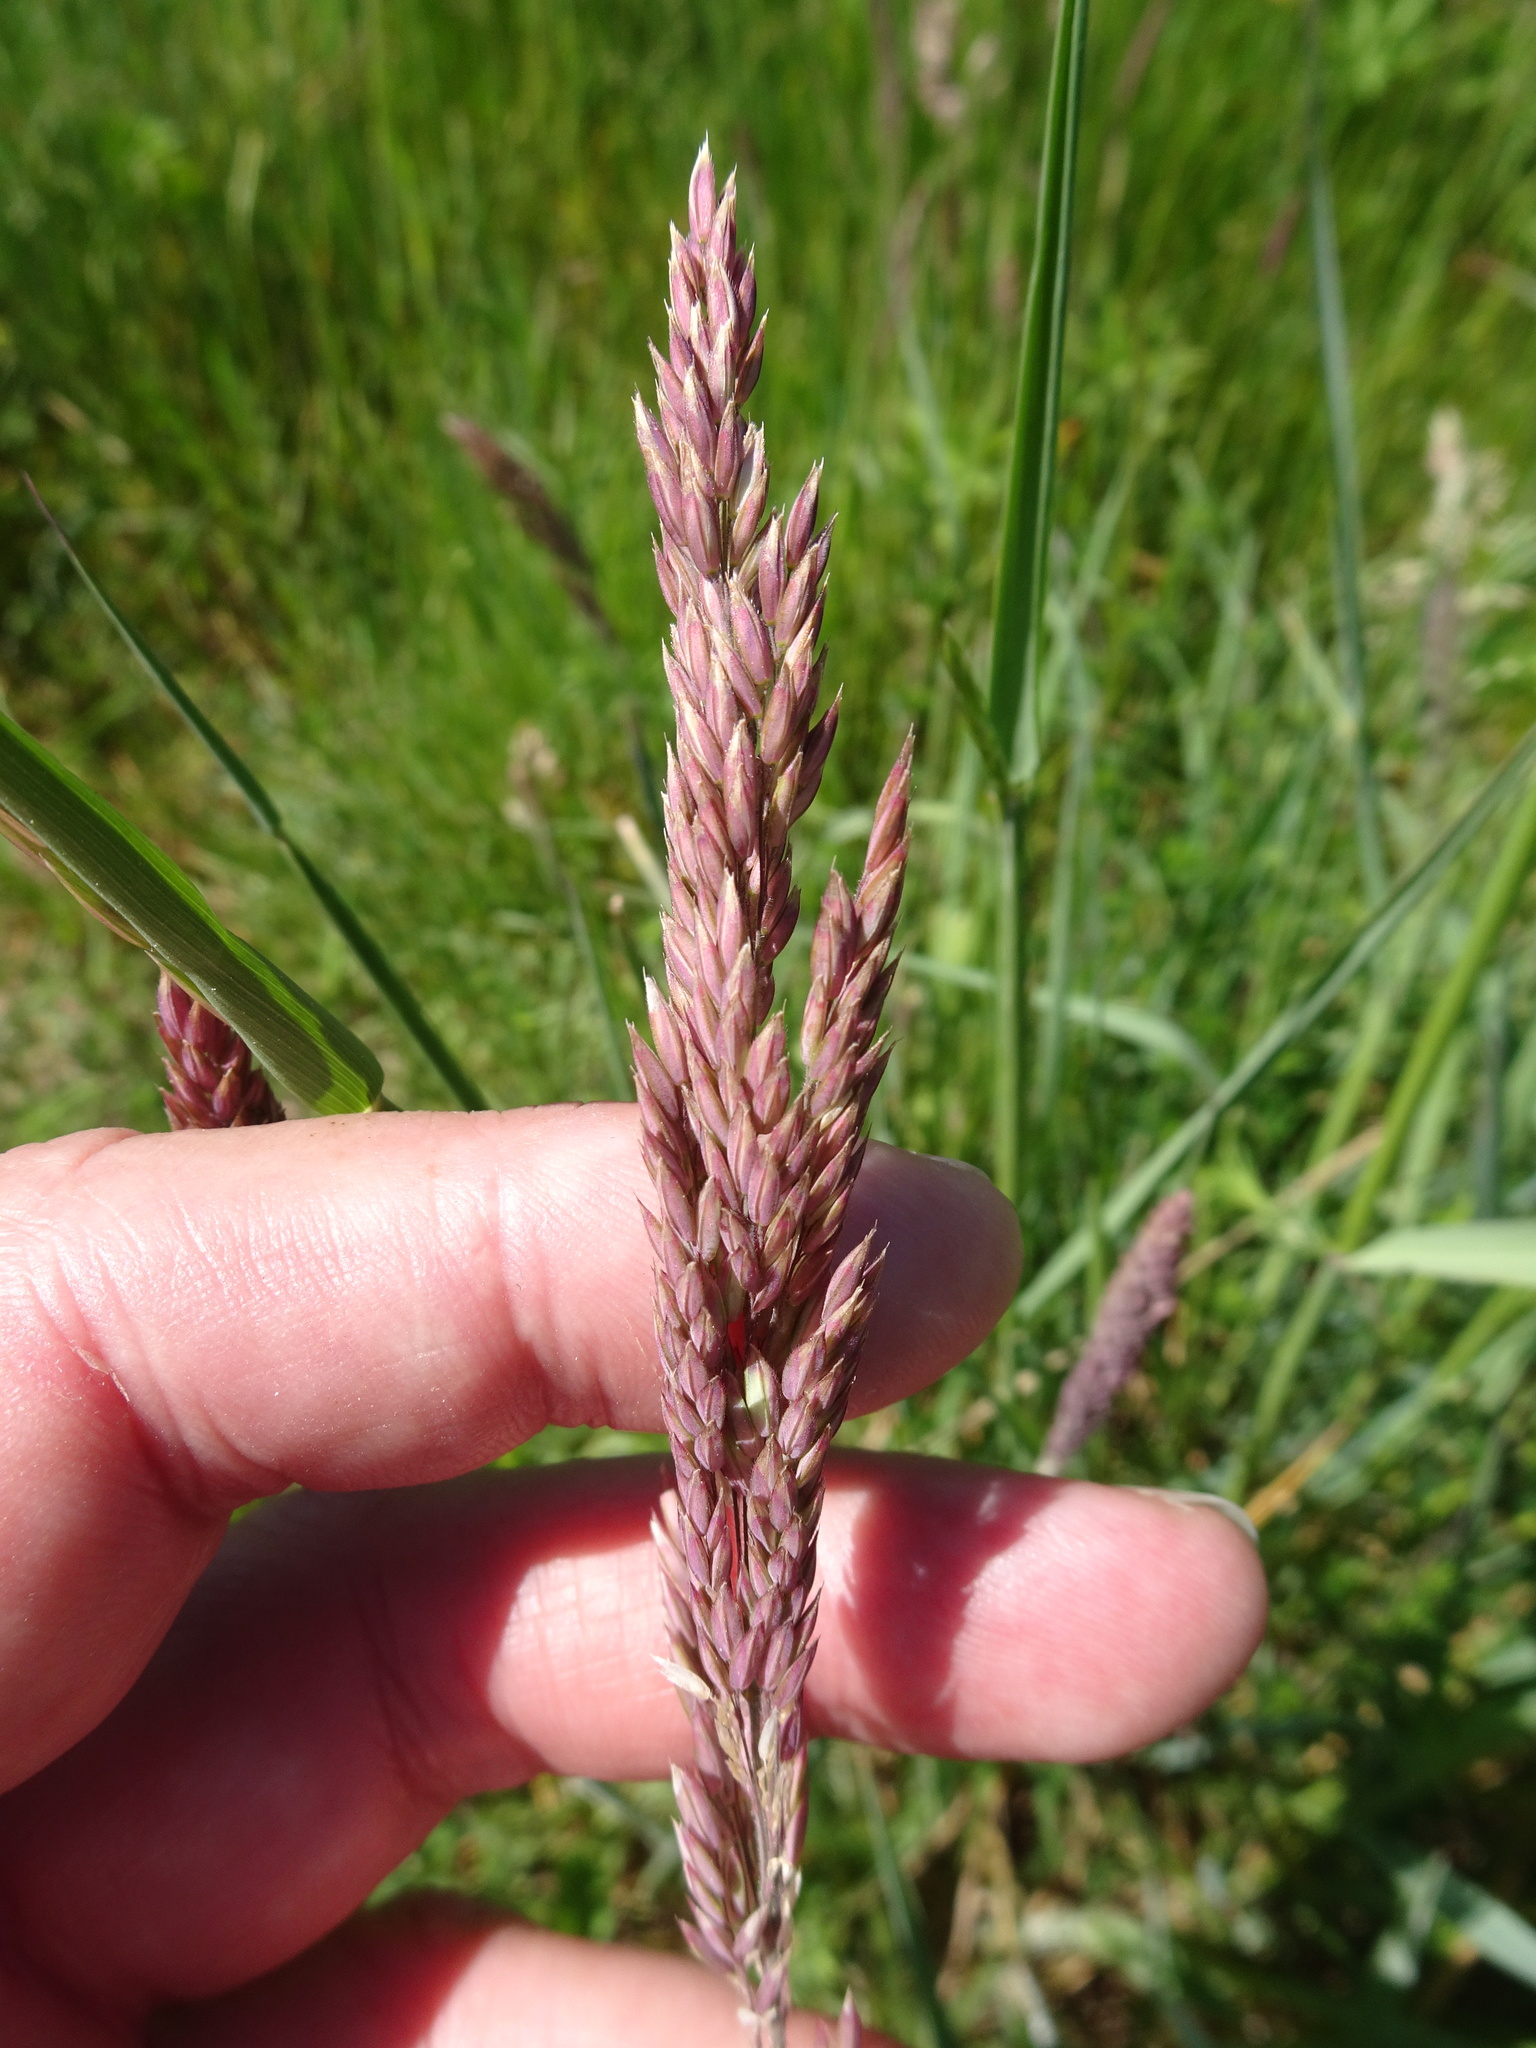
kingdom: Plantae
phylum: Tracheophyta
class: Liliopsida
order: Poales
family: Poaceae
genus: Holcus
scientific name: Holcus lanatus
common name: Yorkshire-fog
